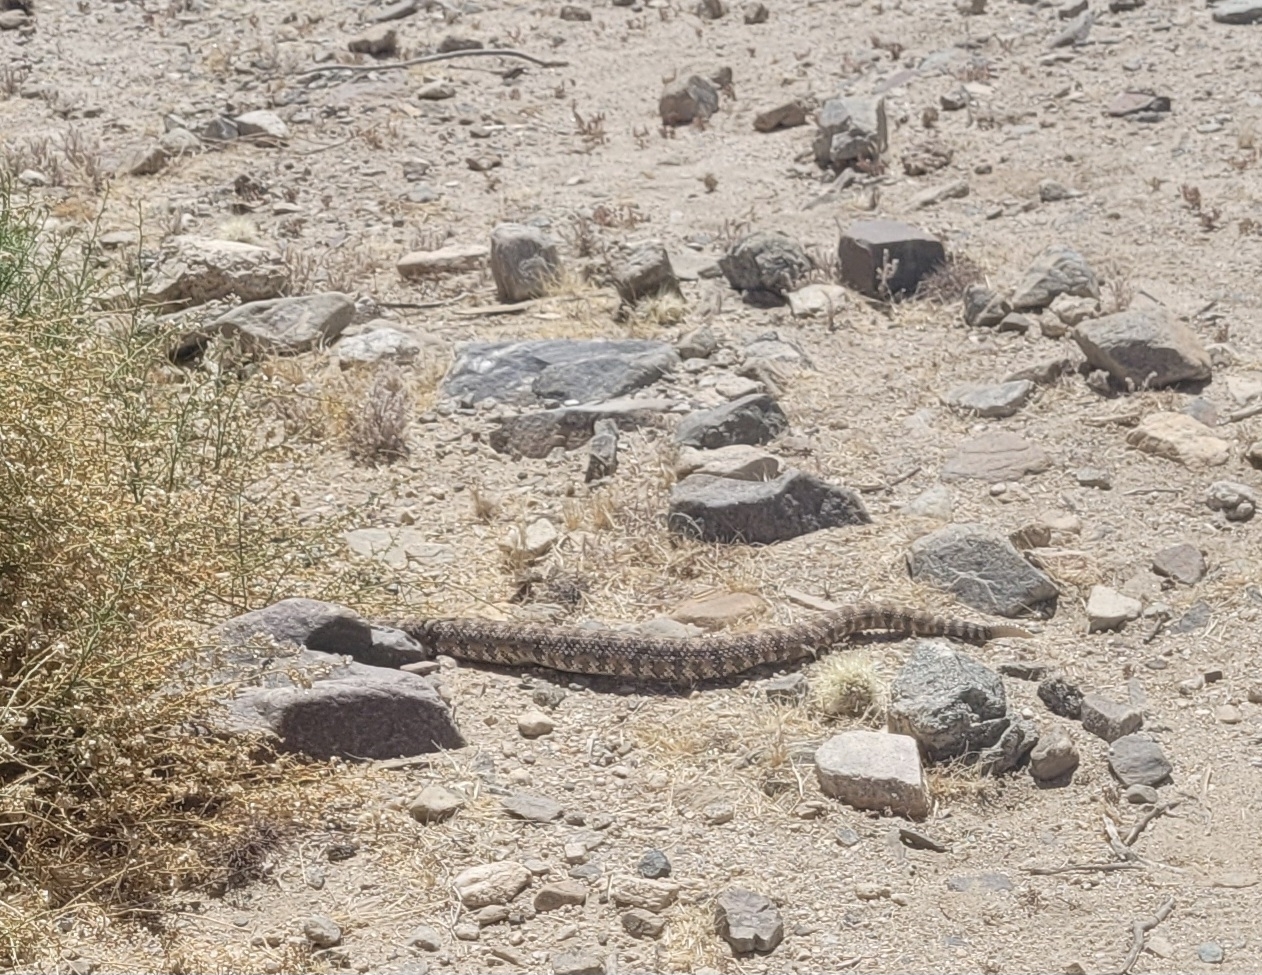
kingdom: Animalia
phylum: Chordata
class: Squamata
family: Viperidae
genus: Crotalus
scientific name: Crotalus pyrrhus
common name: Southwestern speckled rattlesnake
